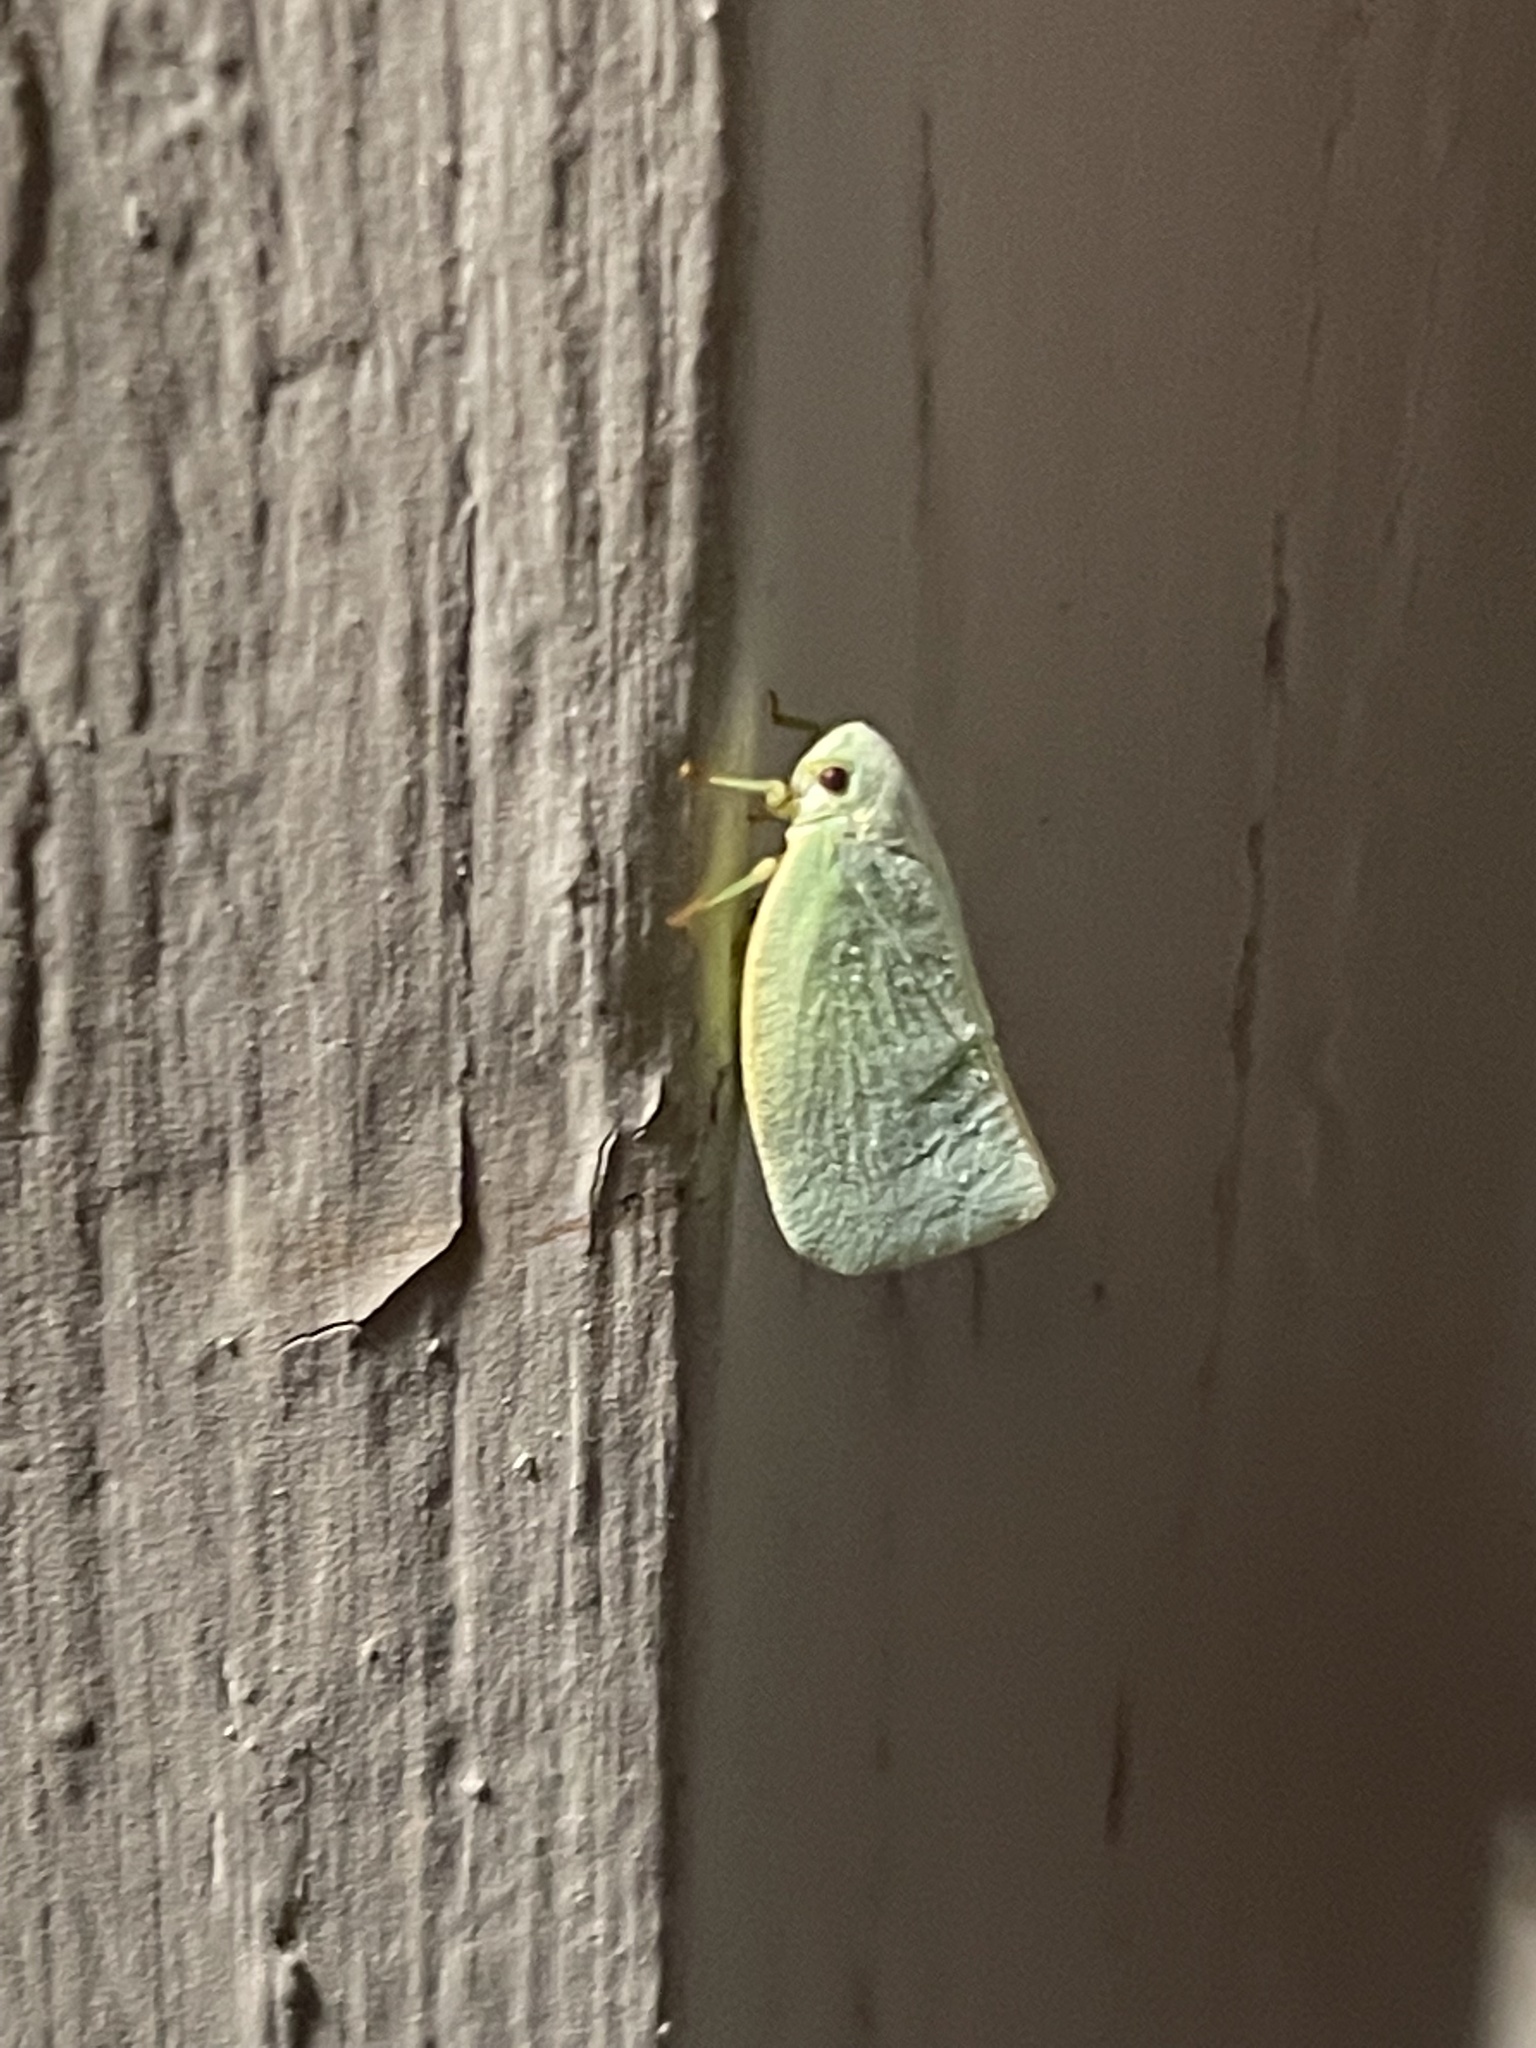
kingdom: Animalia
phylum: Arthropoda
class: Insecta
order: Hemiptera
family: Flatidae
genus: Flatormenis
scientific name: Flatormenis proxima
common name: Northern flatid planthopper
